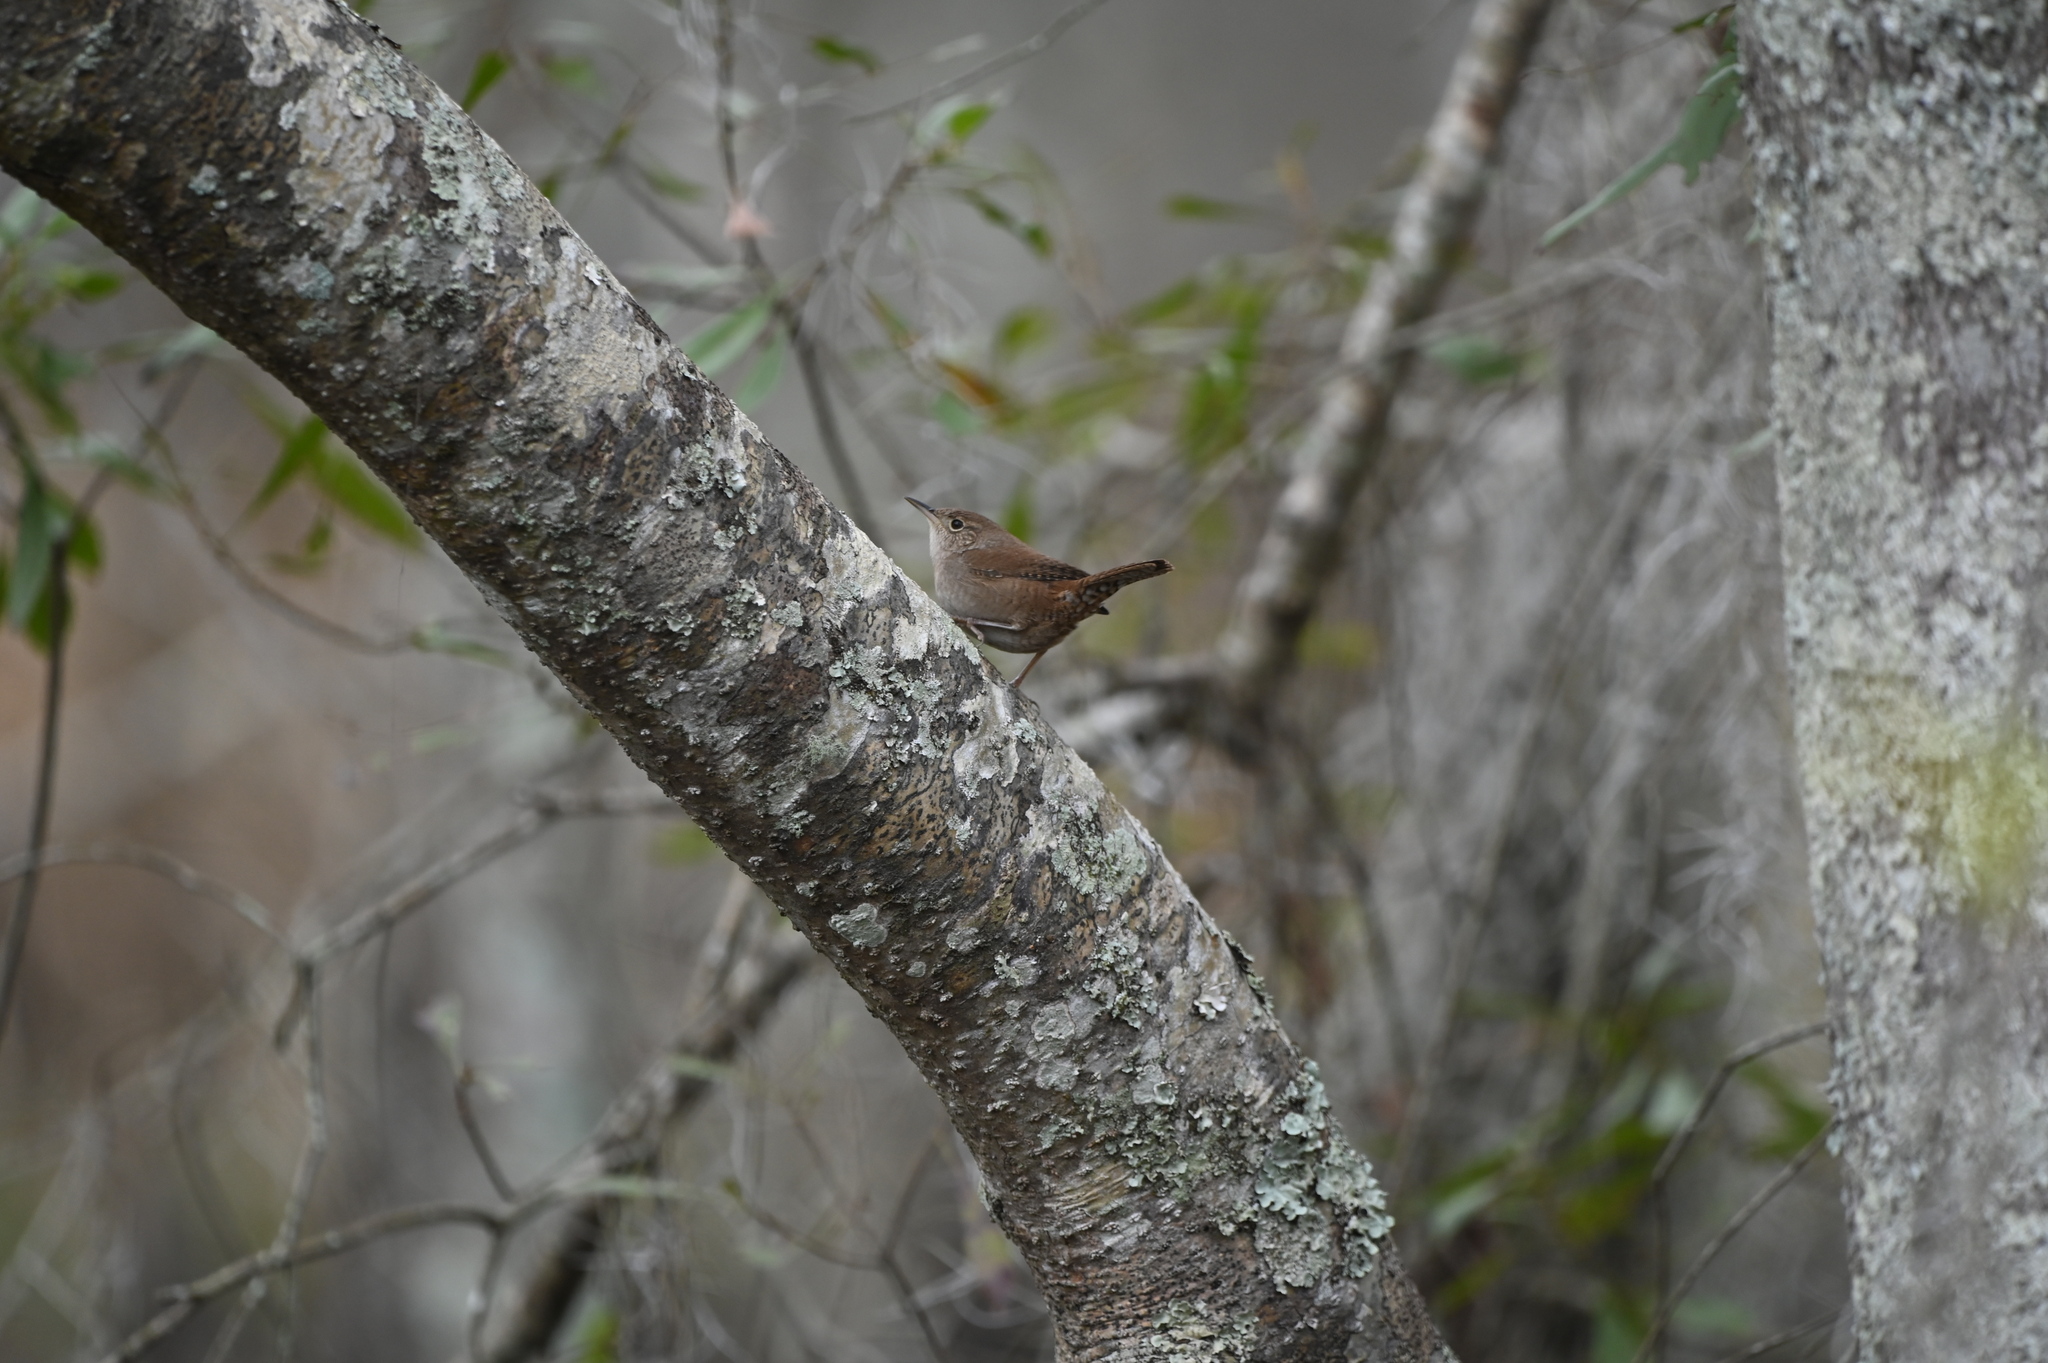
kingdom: Animalia
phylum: Chordata
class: Aves
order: Passeriformes
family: Troglodytidae
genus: Troglodytes
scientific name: Troglodytes aedon
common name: House wren
